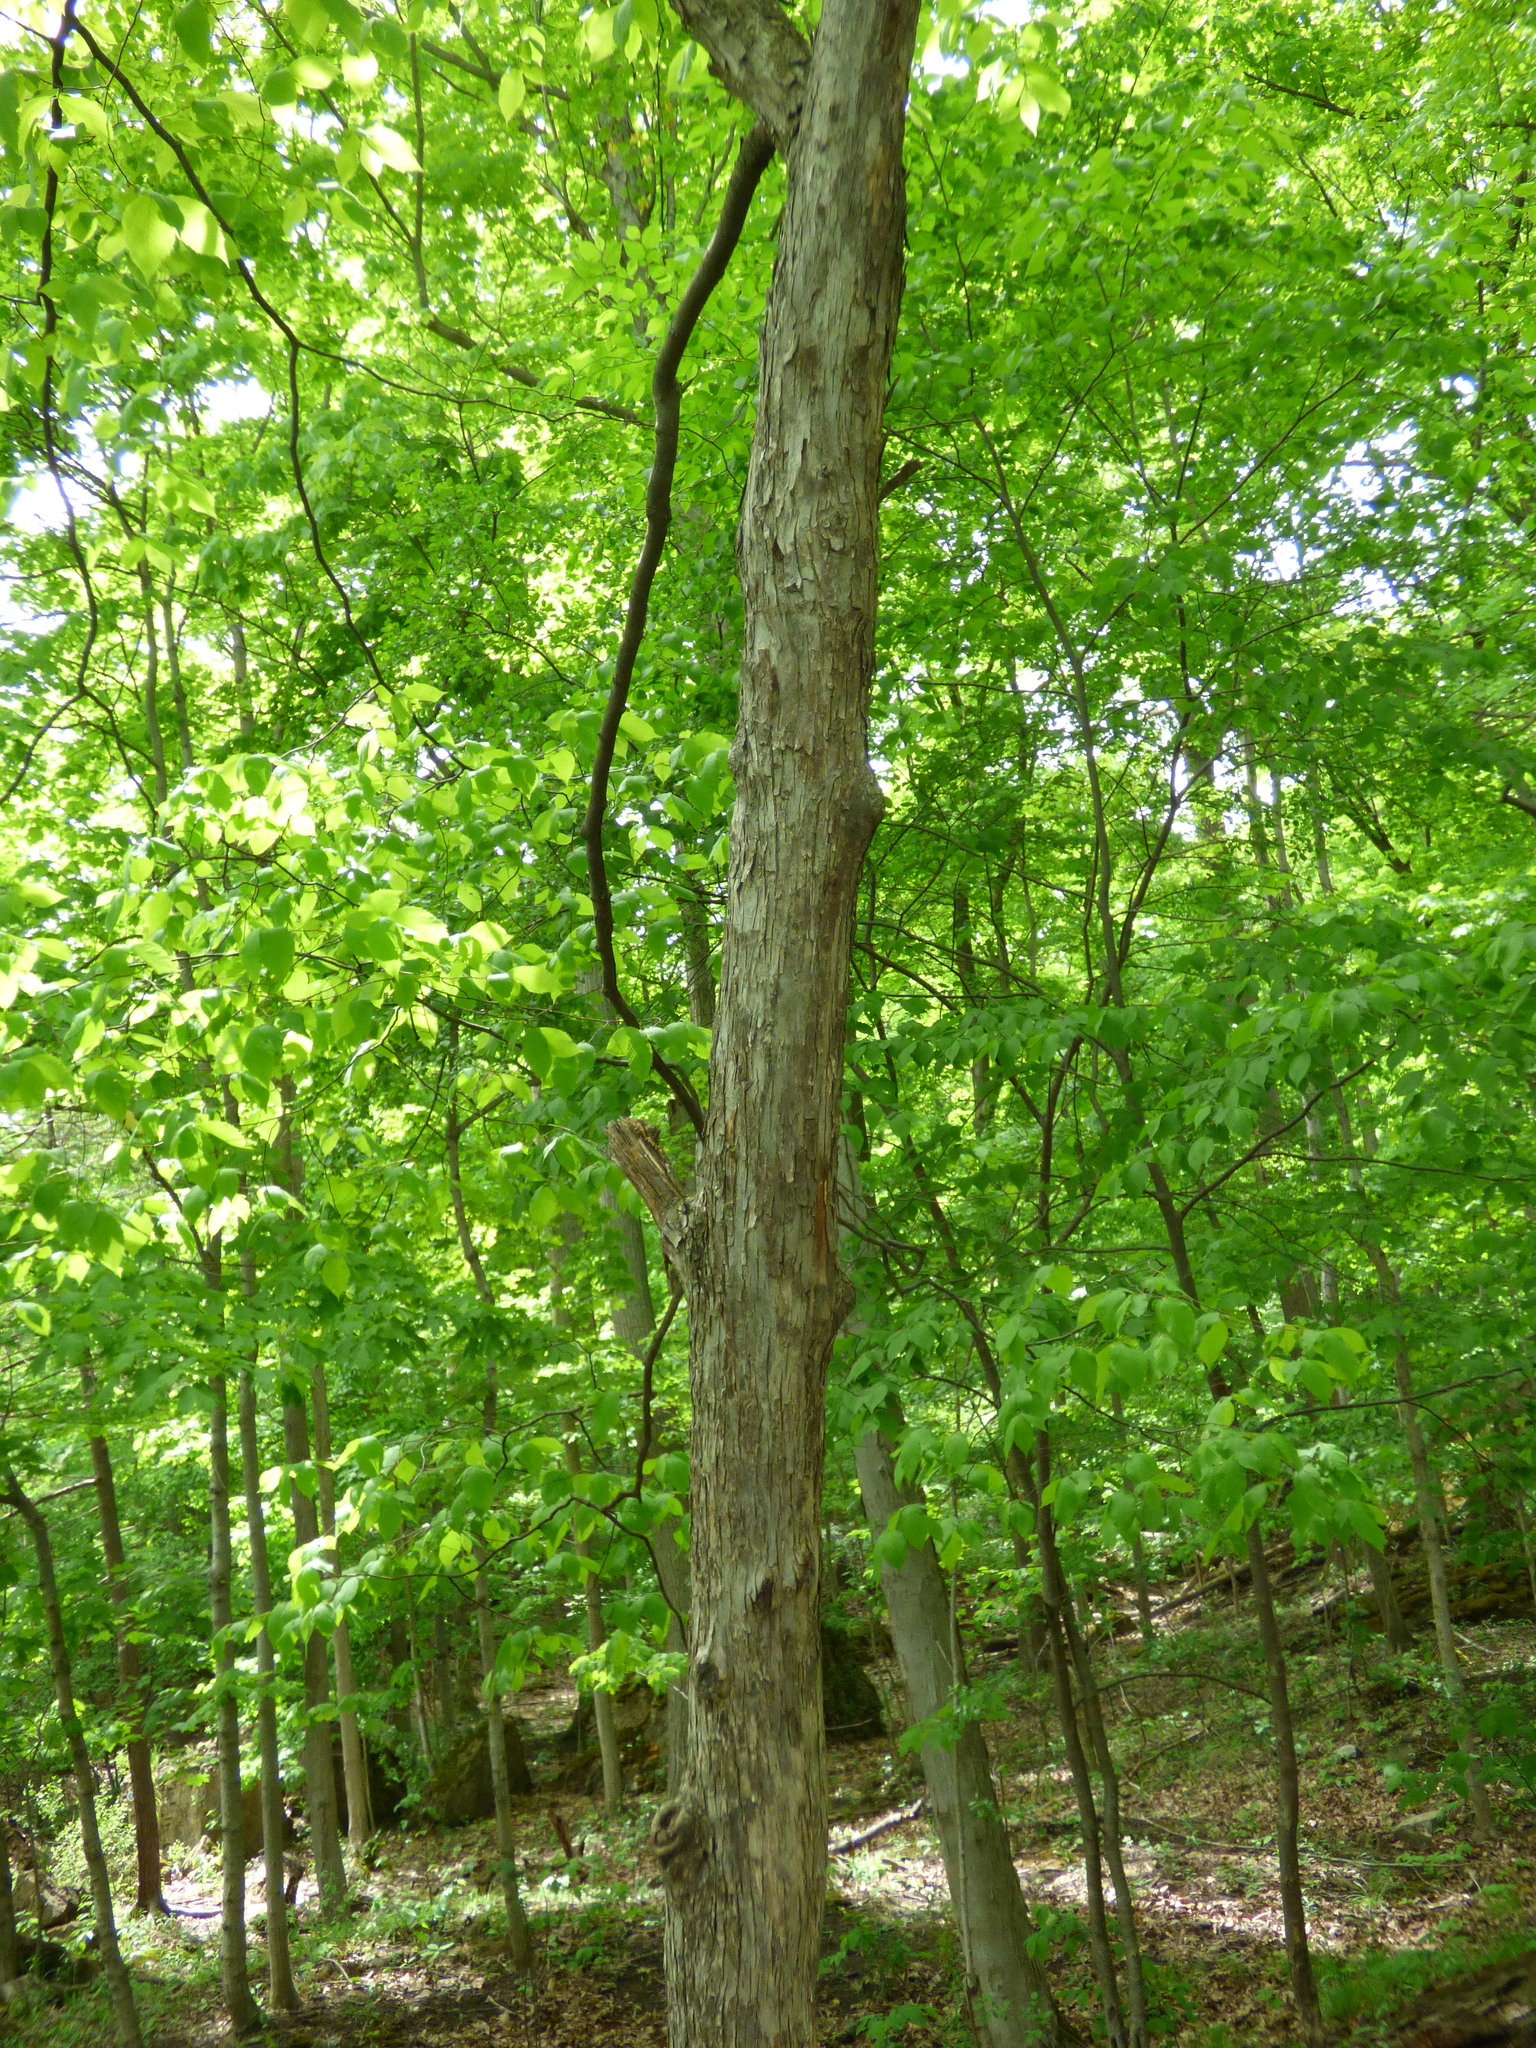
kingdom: Plantae
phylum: Tracheophyta
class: Magnoliopsida
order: Fagales
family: Betulaceae
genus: Ostrya
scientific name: Ostrya virginiana
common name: Ironwood
